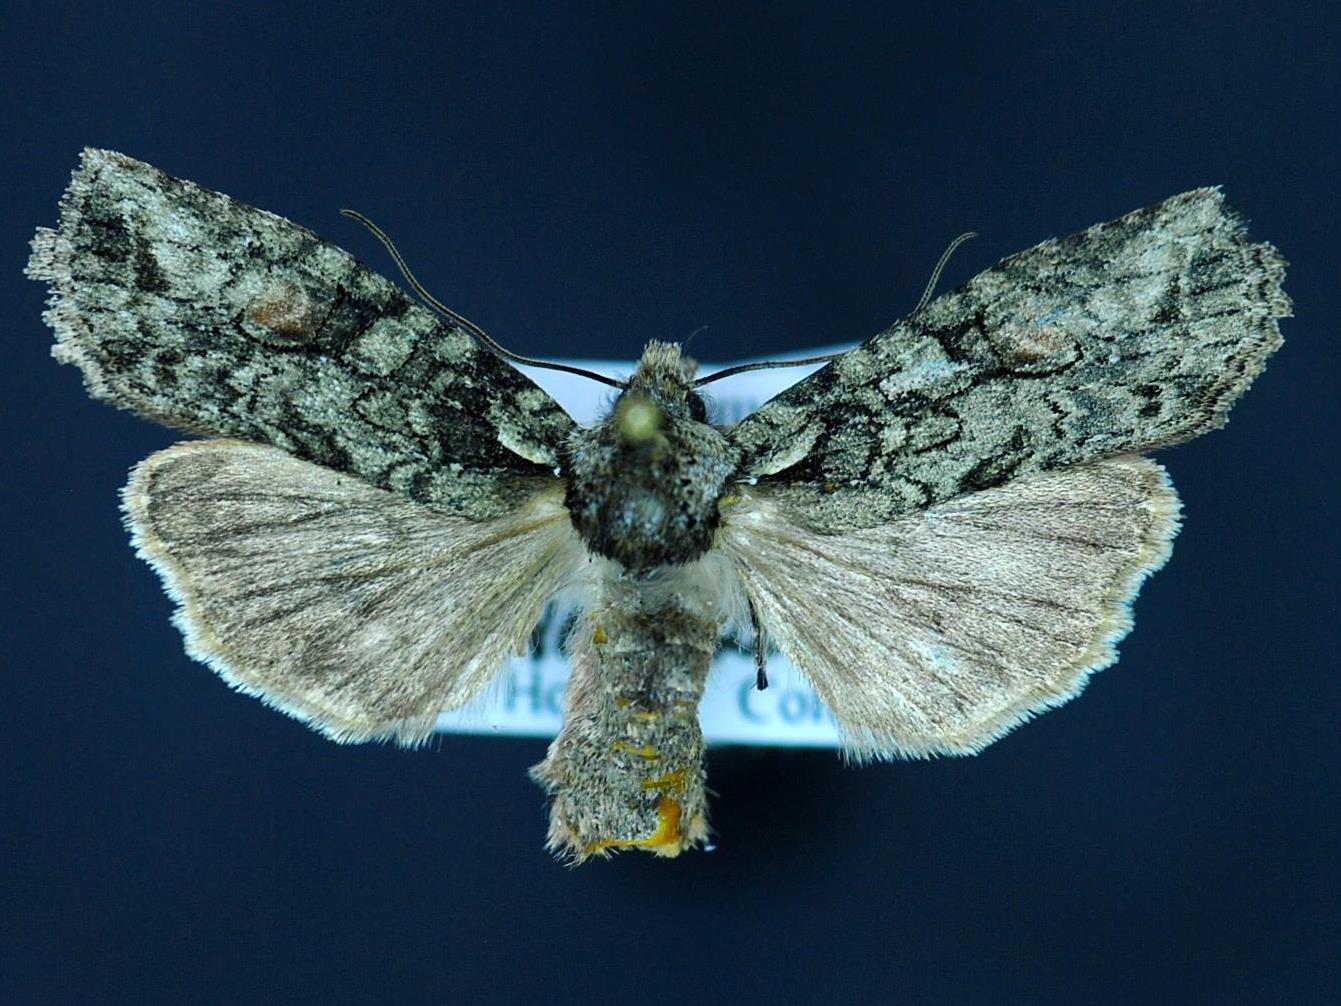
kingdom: Animalia
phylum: Arthropoda
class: Insecta
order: Lepidoptera
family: Noctuidae
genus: Lithophane
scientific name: Lithophane scottae
